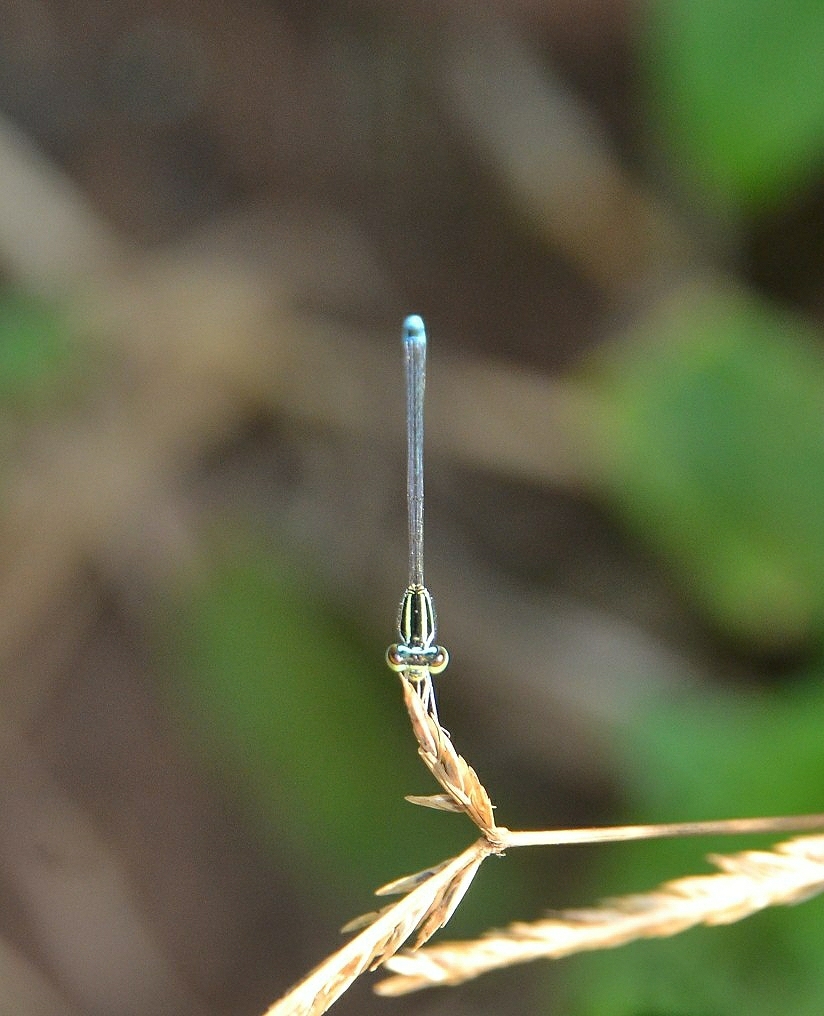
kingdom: Animalia
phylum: Arthropoda
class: Insecta
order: Odonata
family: Coenagrionidae
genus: Aciagrion
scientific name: Aciagrion occidentale
